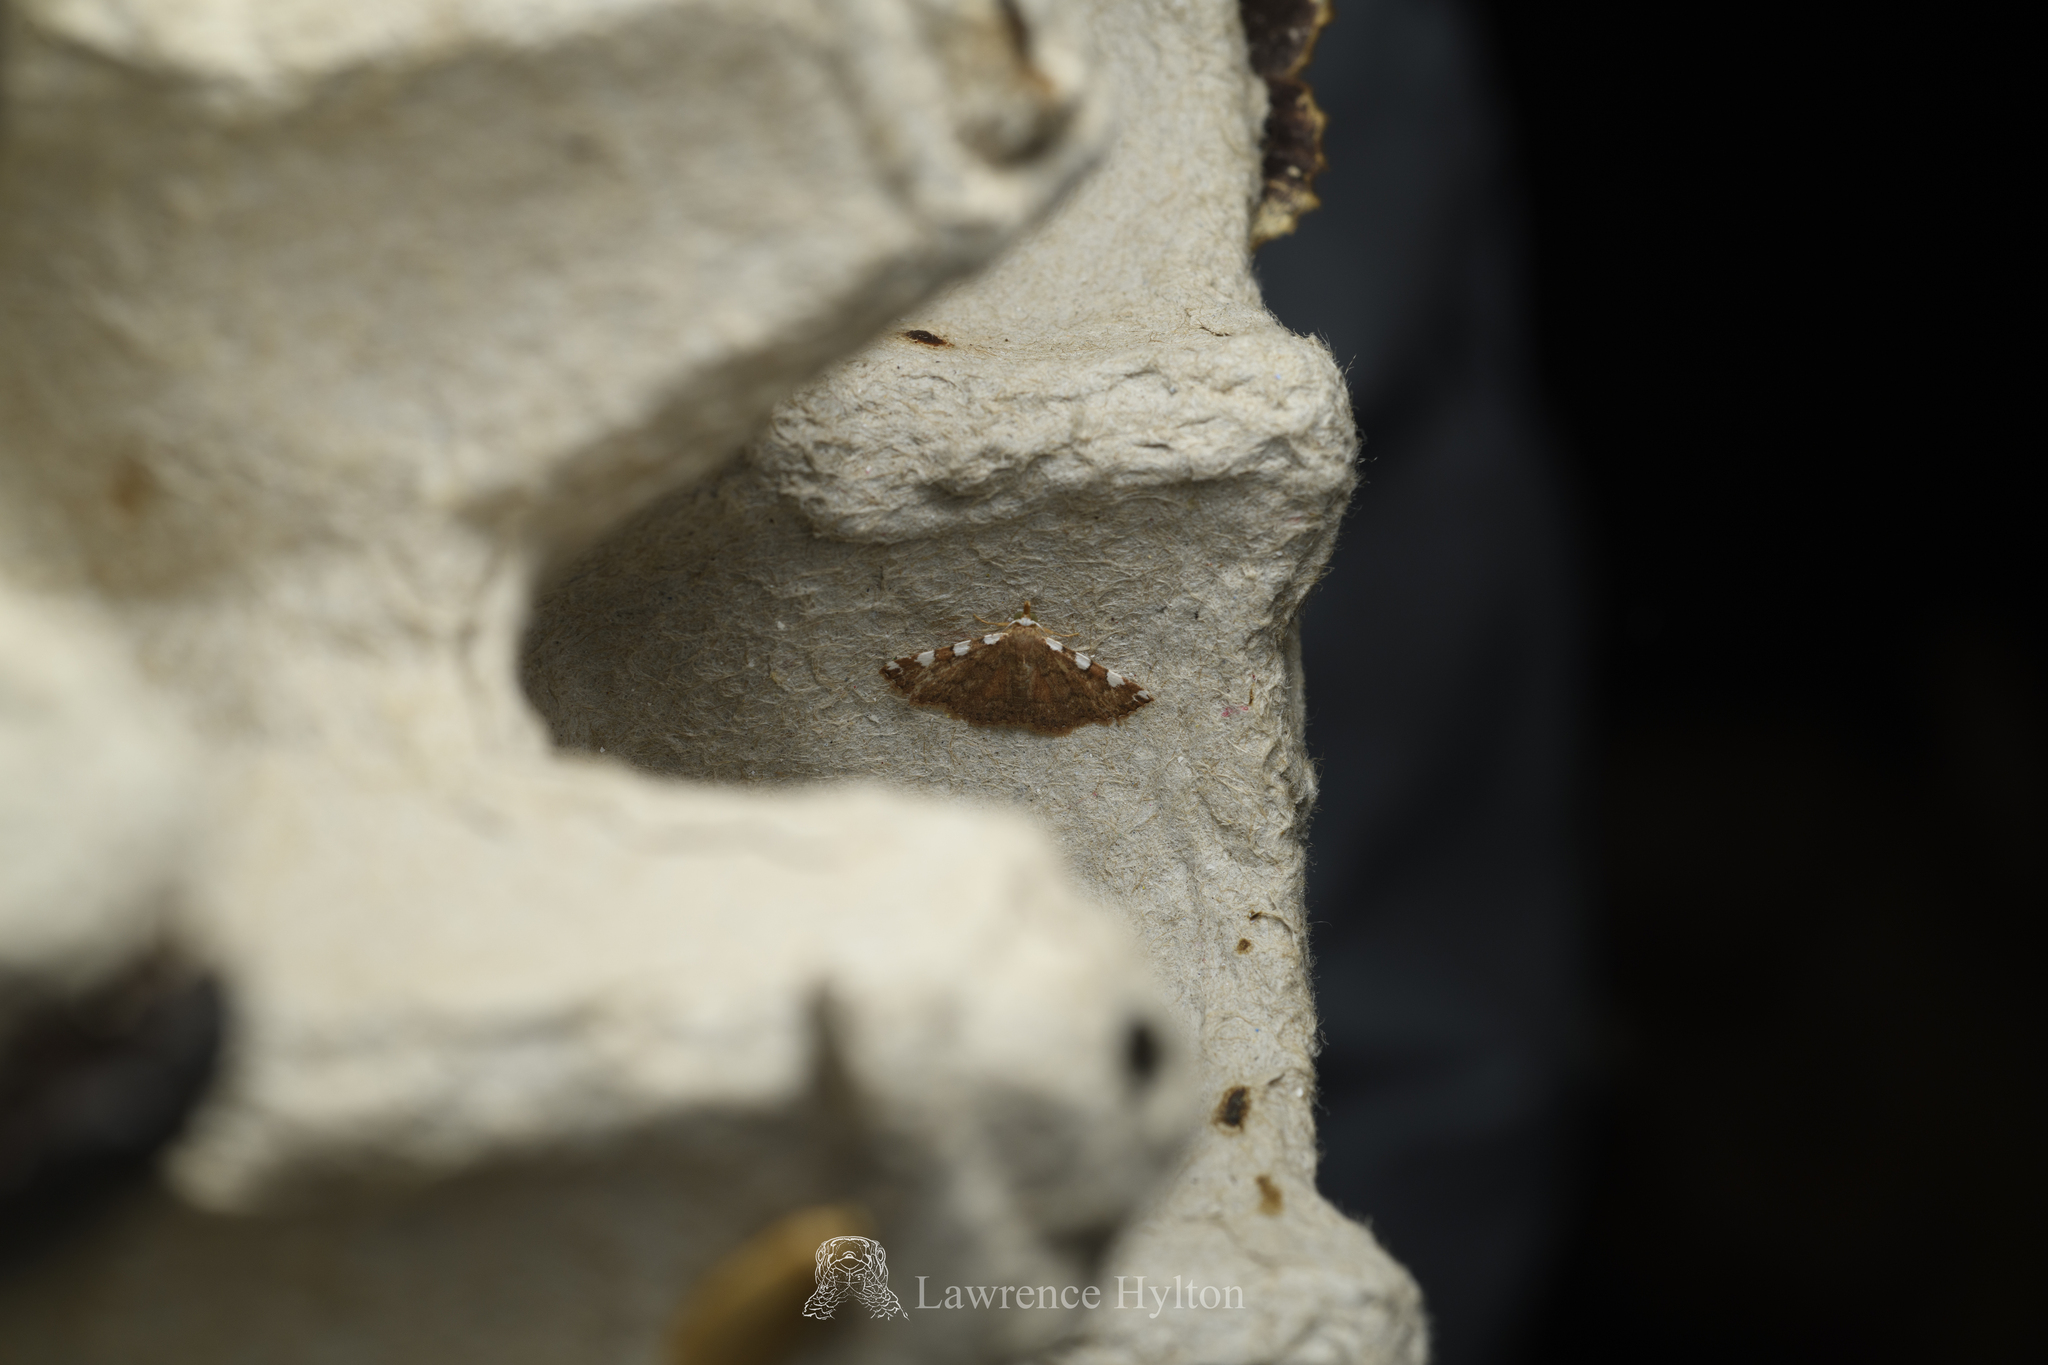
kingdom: Animalia
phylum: Arthropoda
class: Insecta
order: Lepidoptera
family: Erebidae
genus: Corgatha
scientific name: Corgatha pseudominor
